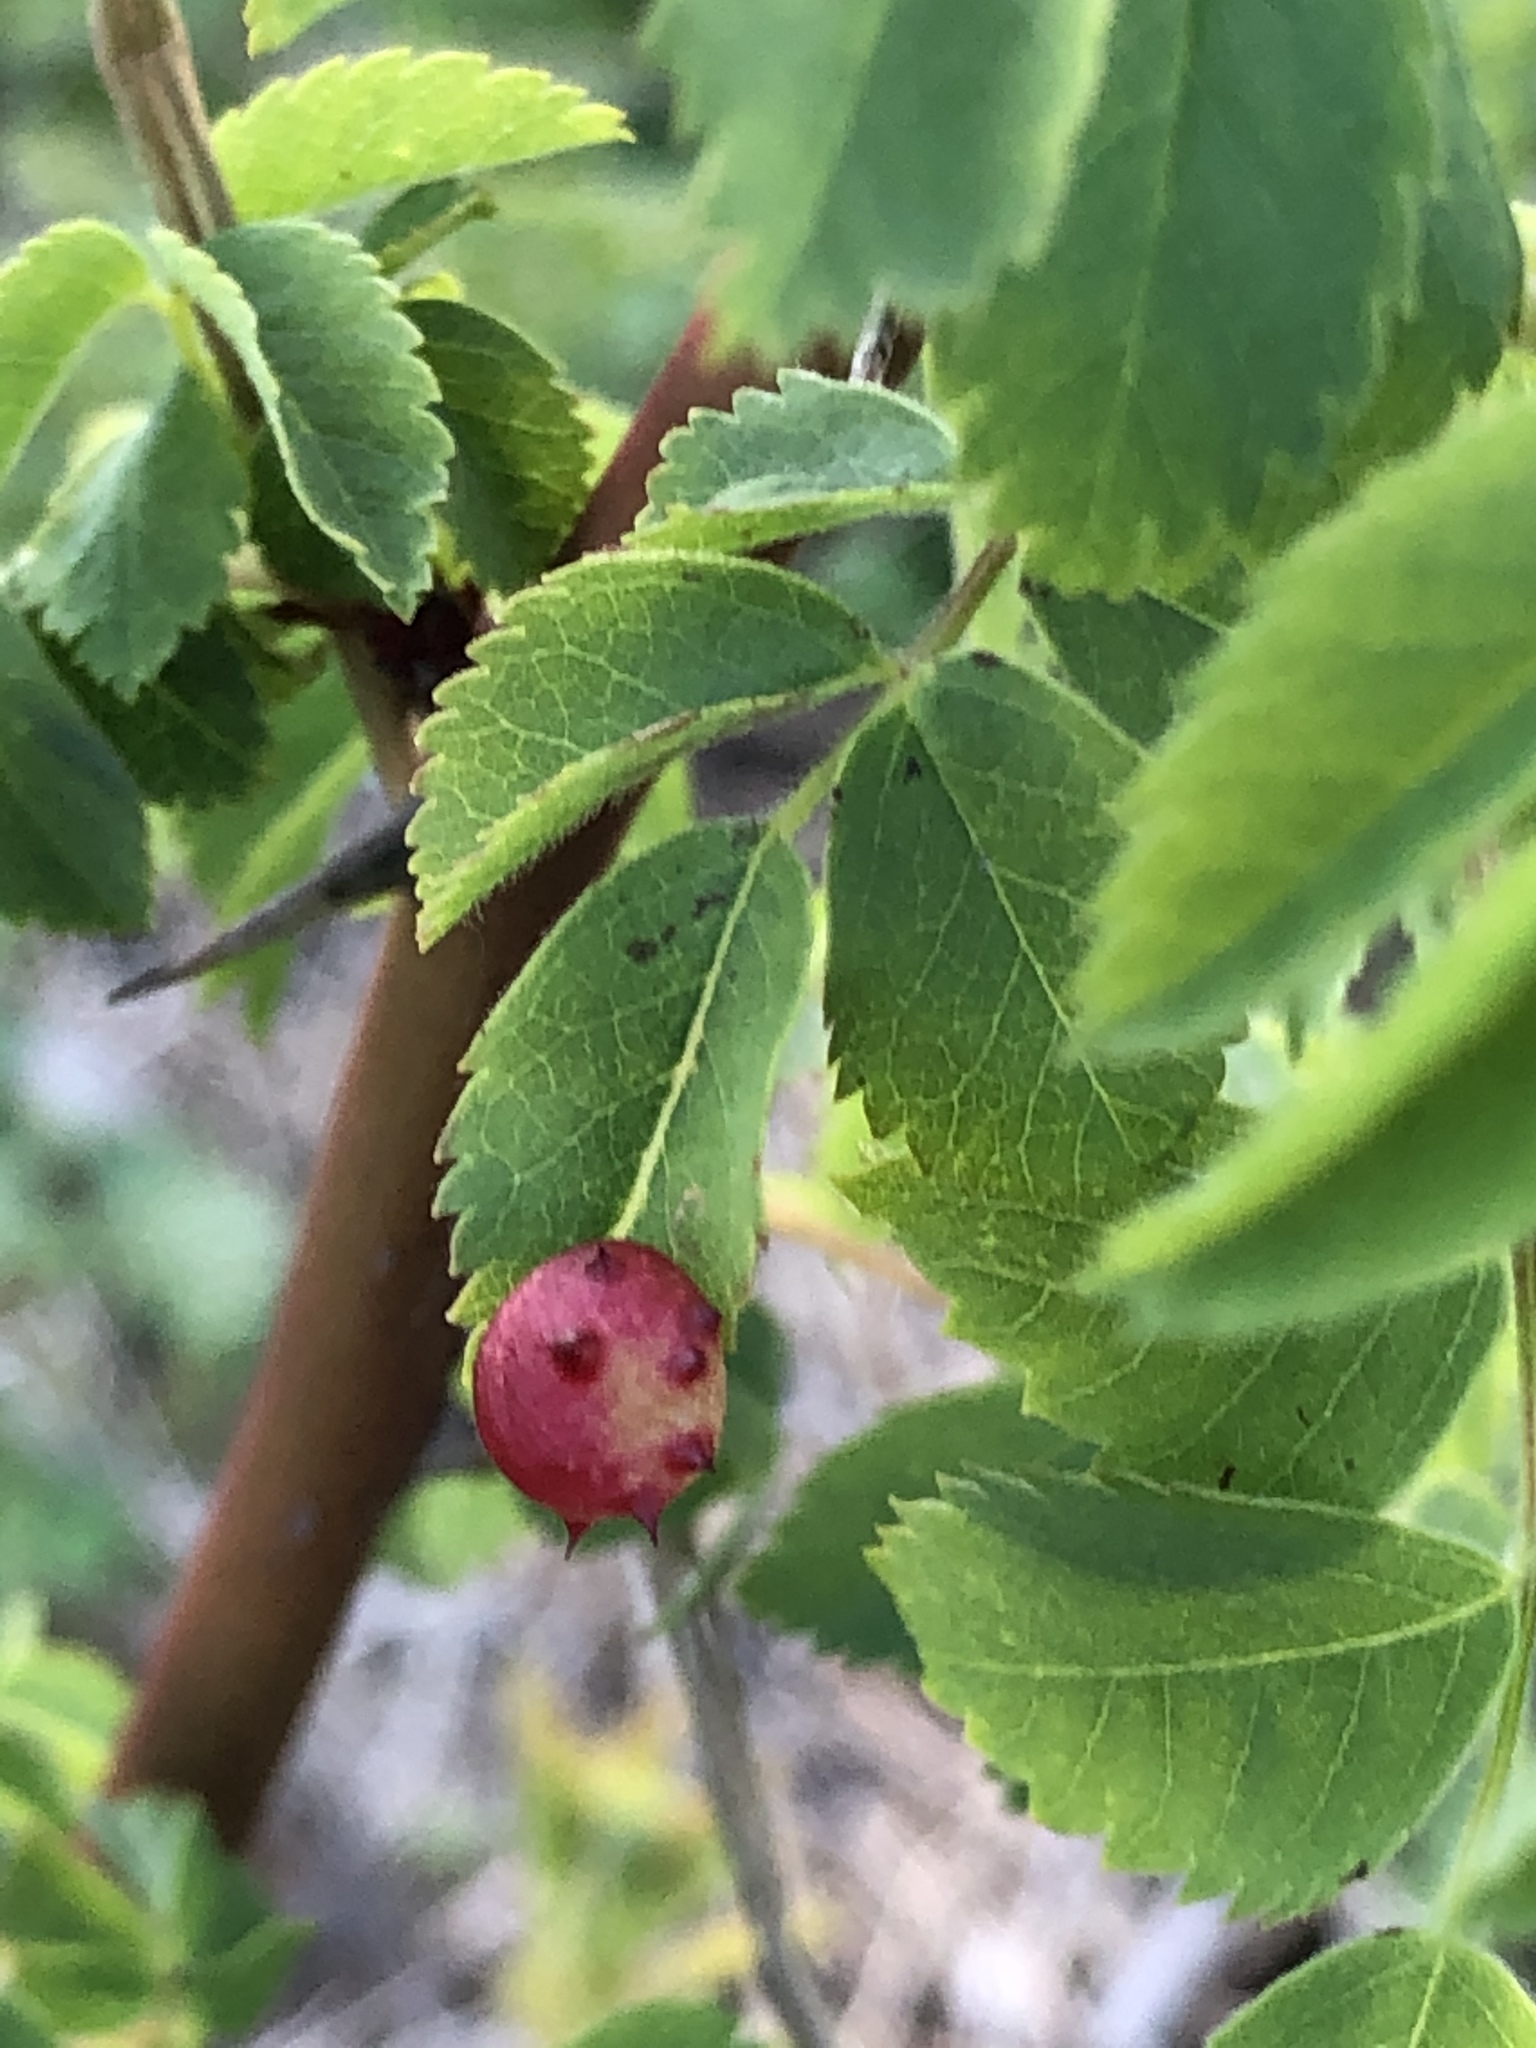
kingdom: Animalia
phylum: Arthropoda
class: Insecta
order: Hymenoptera
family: Cynipidae
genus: Diplolepis
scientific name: Diplolepis polita
